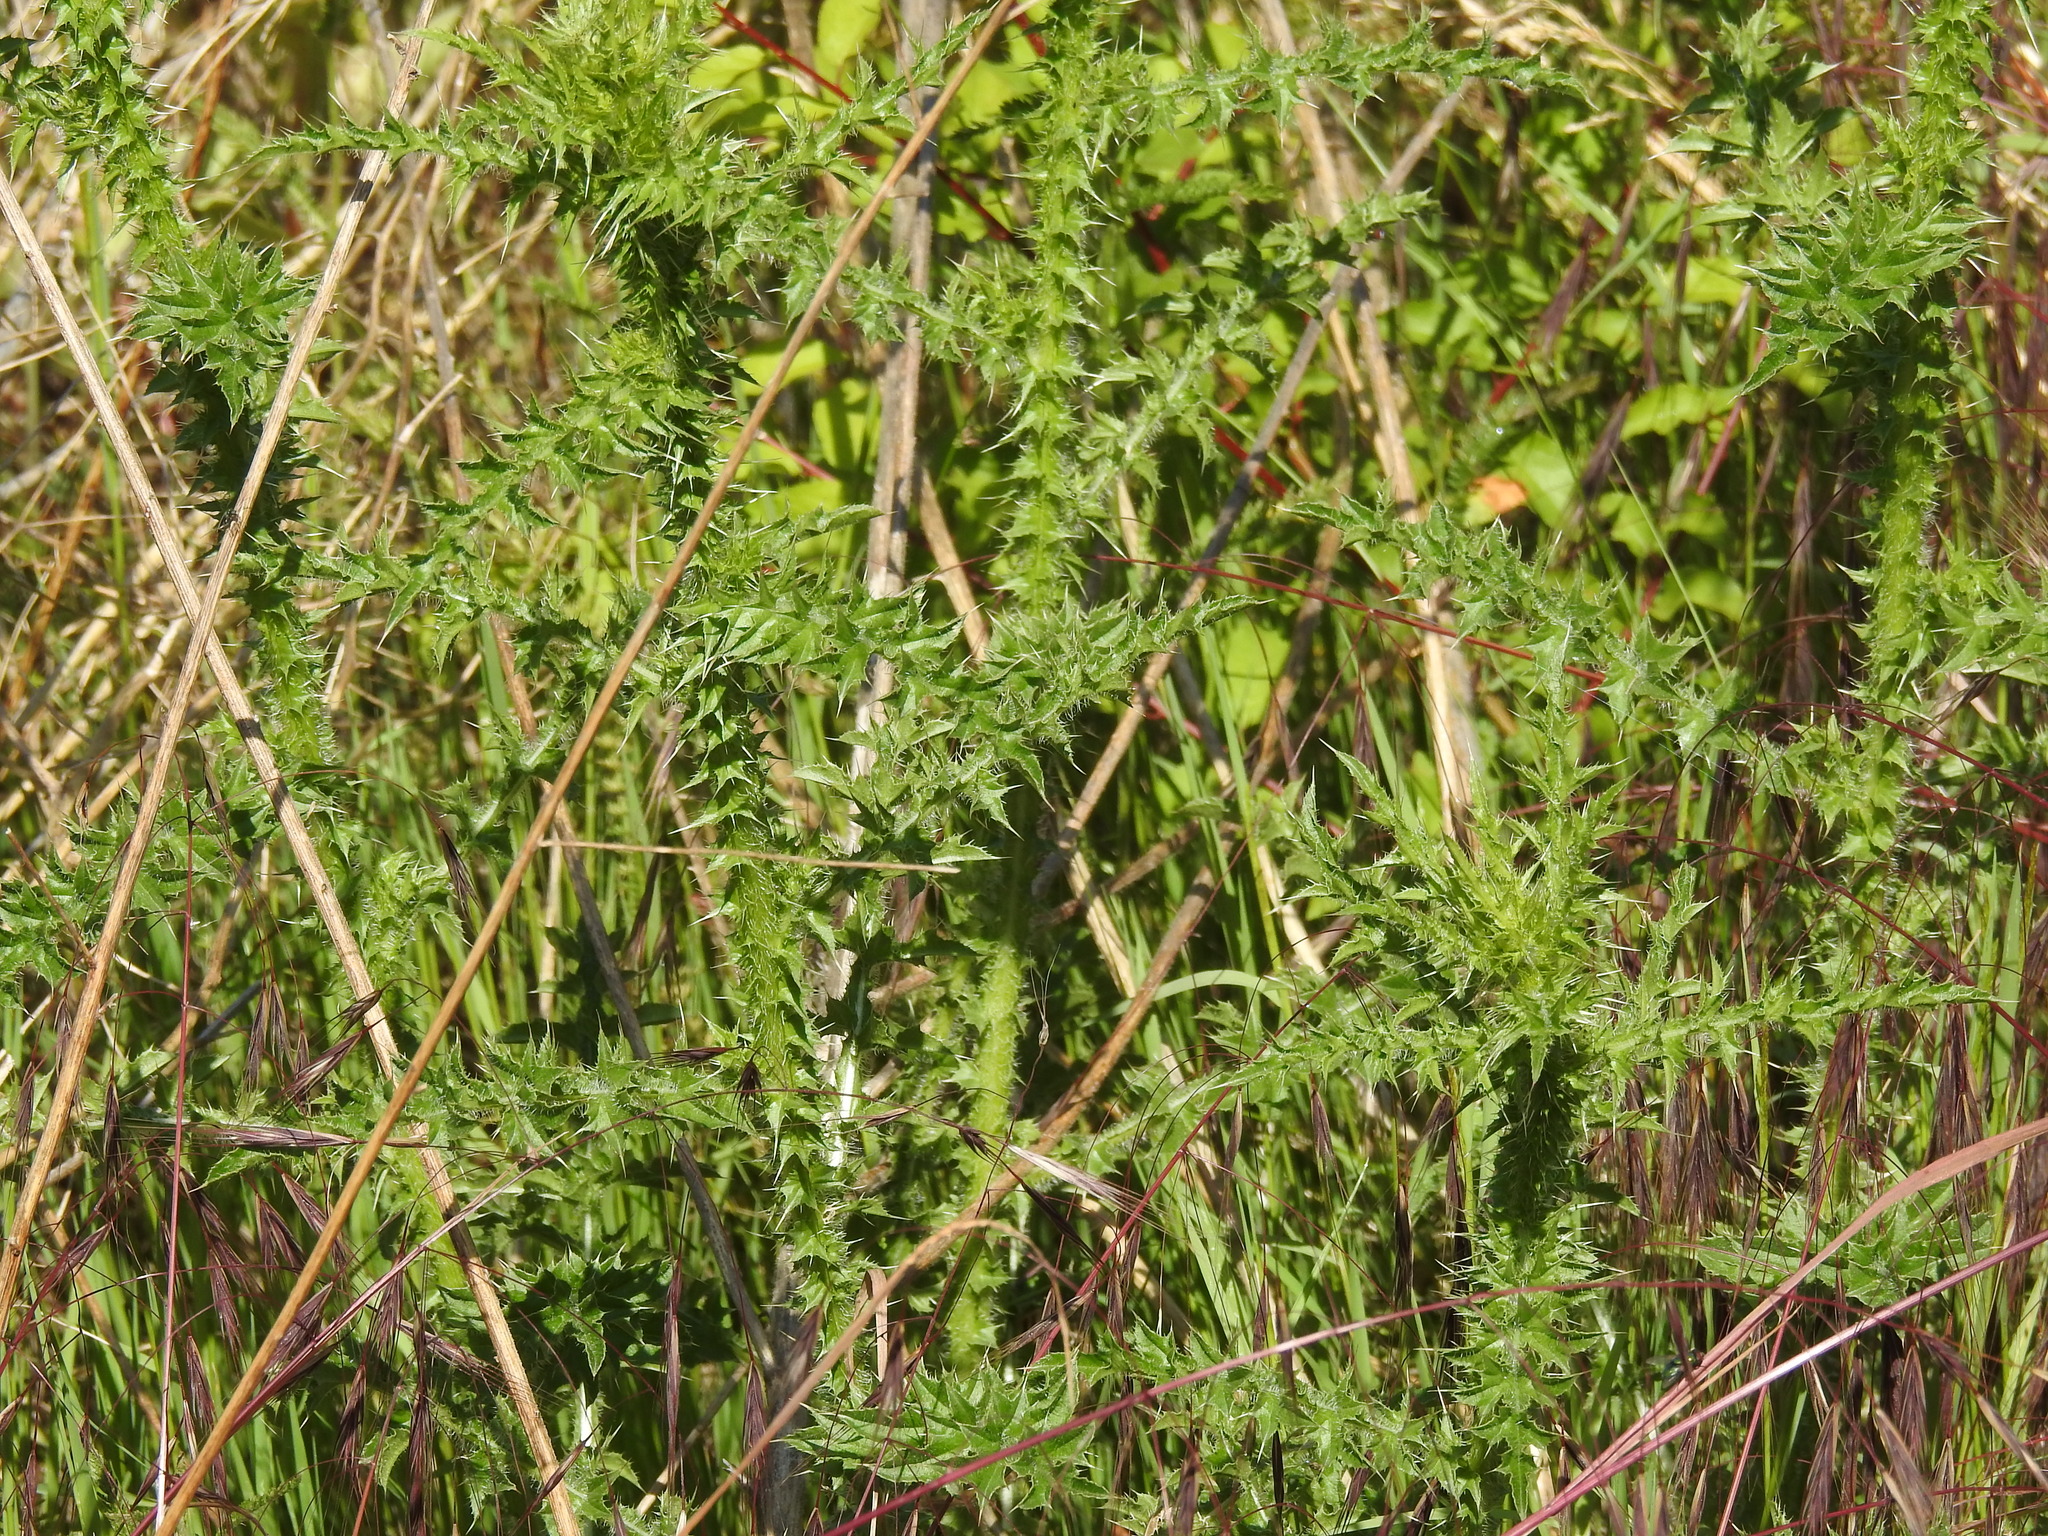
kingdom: Plantae
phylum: Tracheophyta
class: Magnoliopsida
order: Asterales
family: Asteraceae
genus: Carduus
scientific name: Carduus acanthoides
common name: Plumeless thistle
